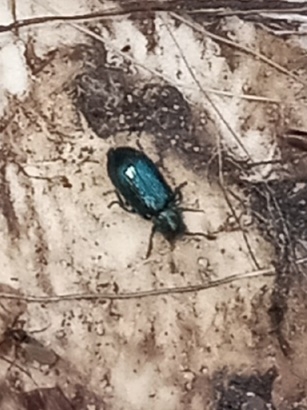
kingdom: Animalia
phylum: Arthropoda
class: Insecta
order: Coleoptera
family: Cleridae
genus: Necrobia
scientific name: Necrobia violacea
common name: Violet checkered beetle
